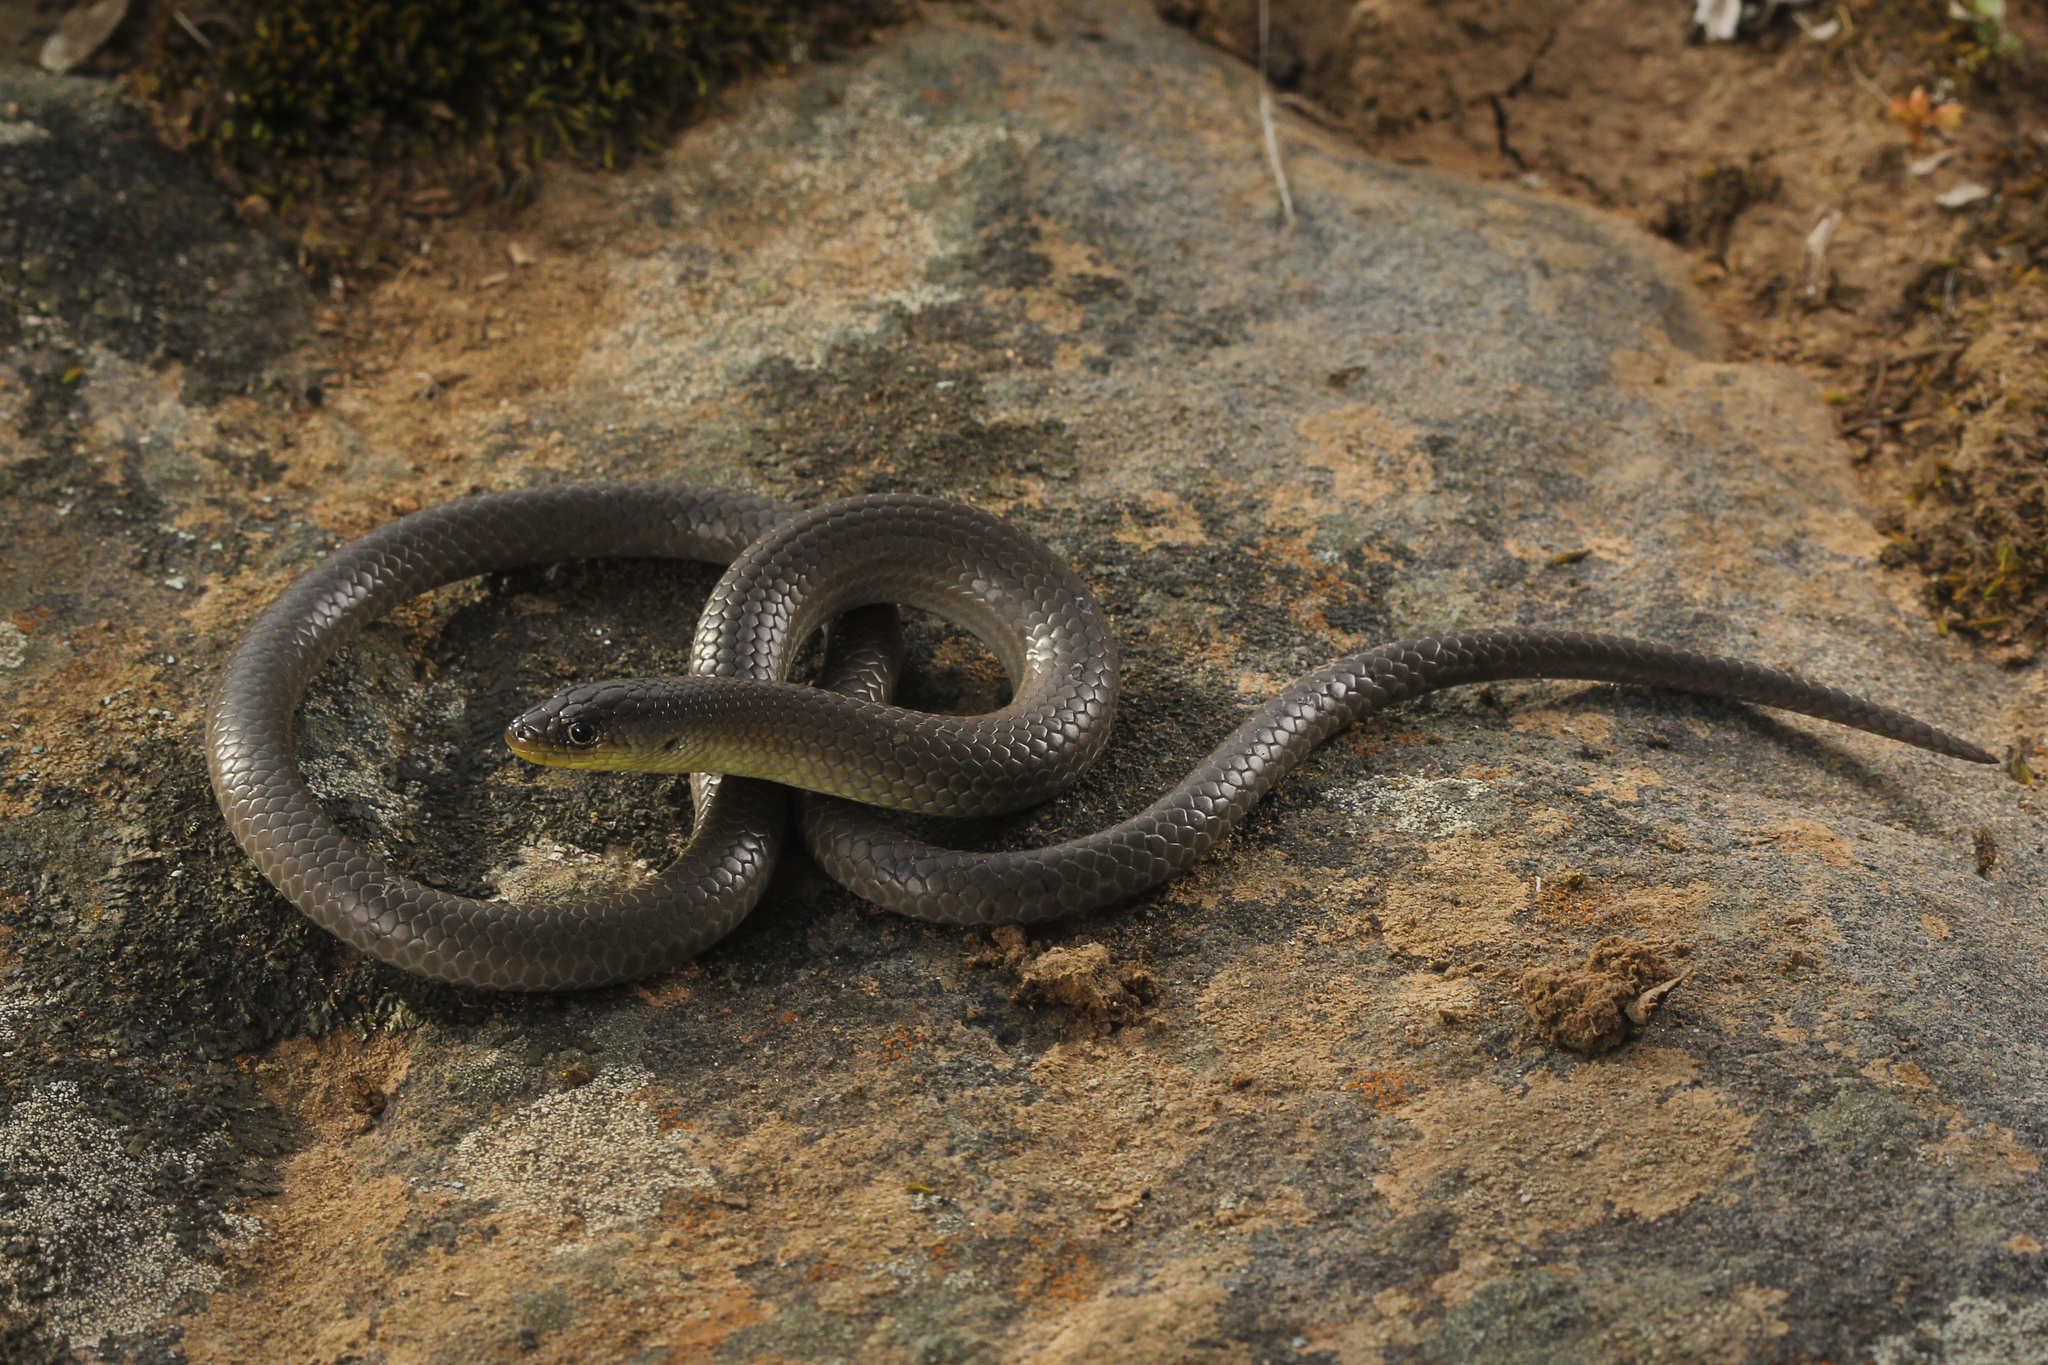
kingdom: Animalia
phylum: Chordata
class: Squamata
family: Pygopodidae
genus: Delma
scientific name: Delma inornata
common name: Patternless delma
